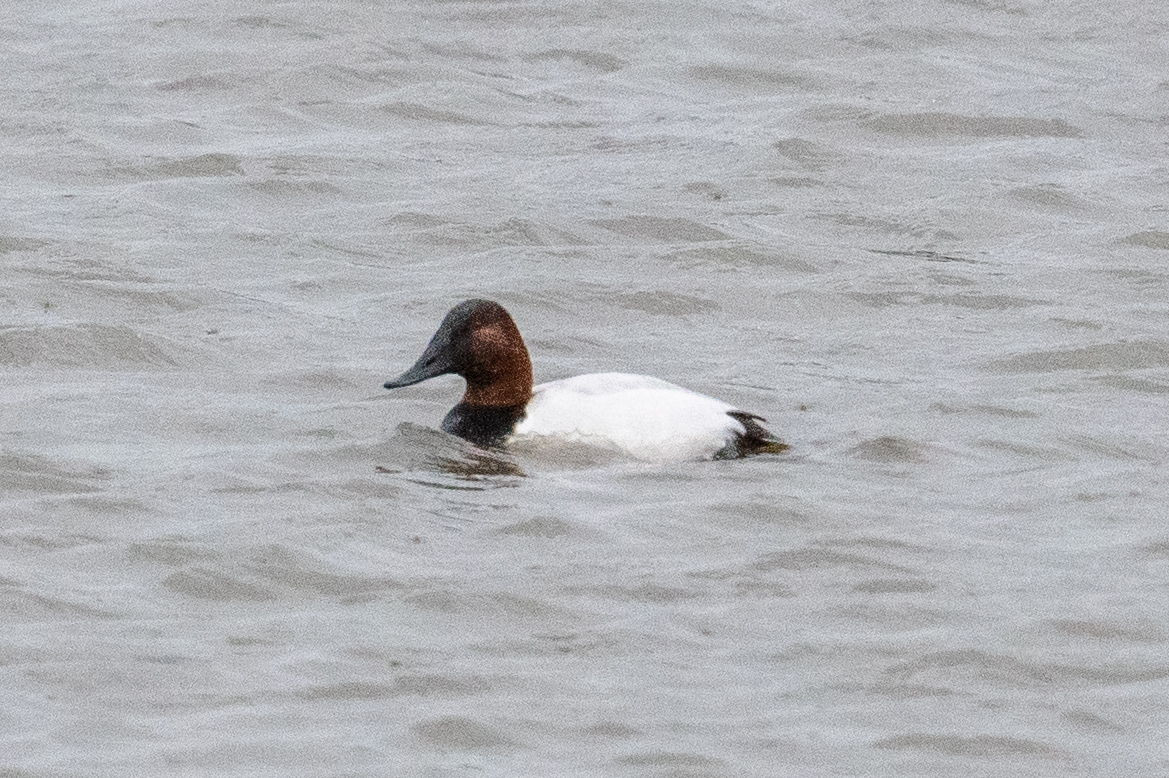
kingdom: Animalia
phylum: Chordata
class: Aves
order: Anseriformes
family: Anatidae
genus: Aythya
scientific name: Aythya valisineria
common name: Canvasback
